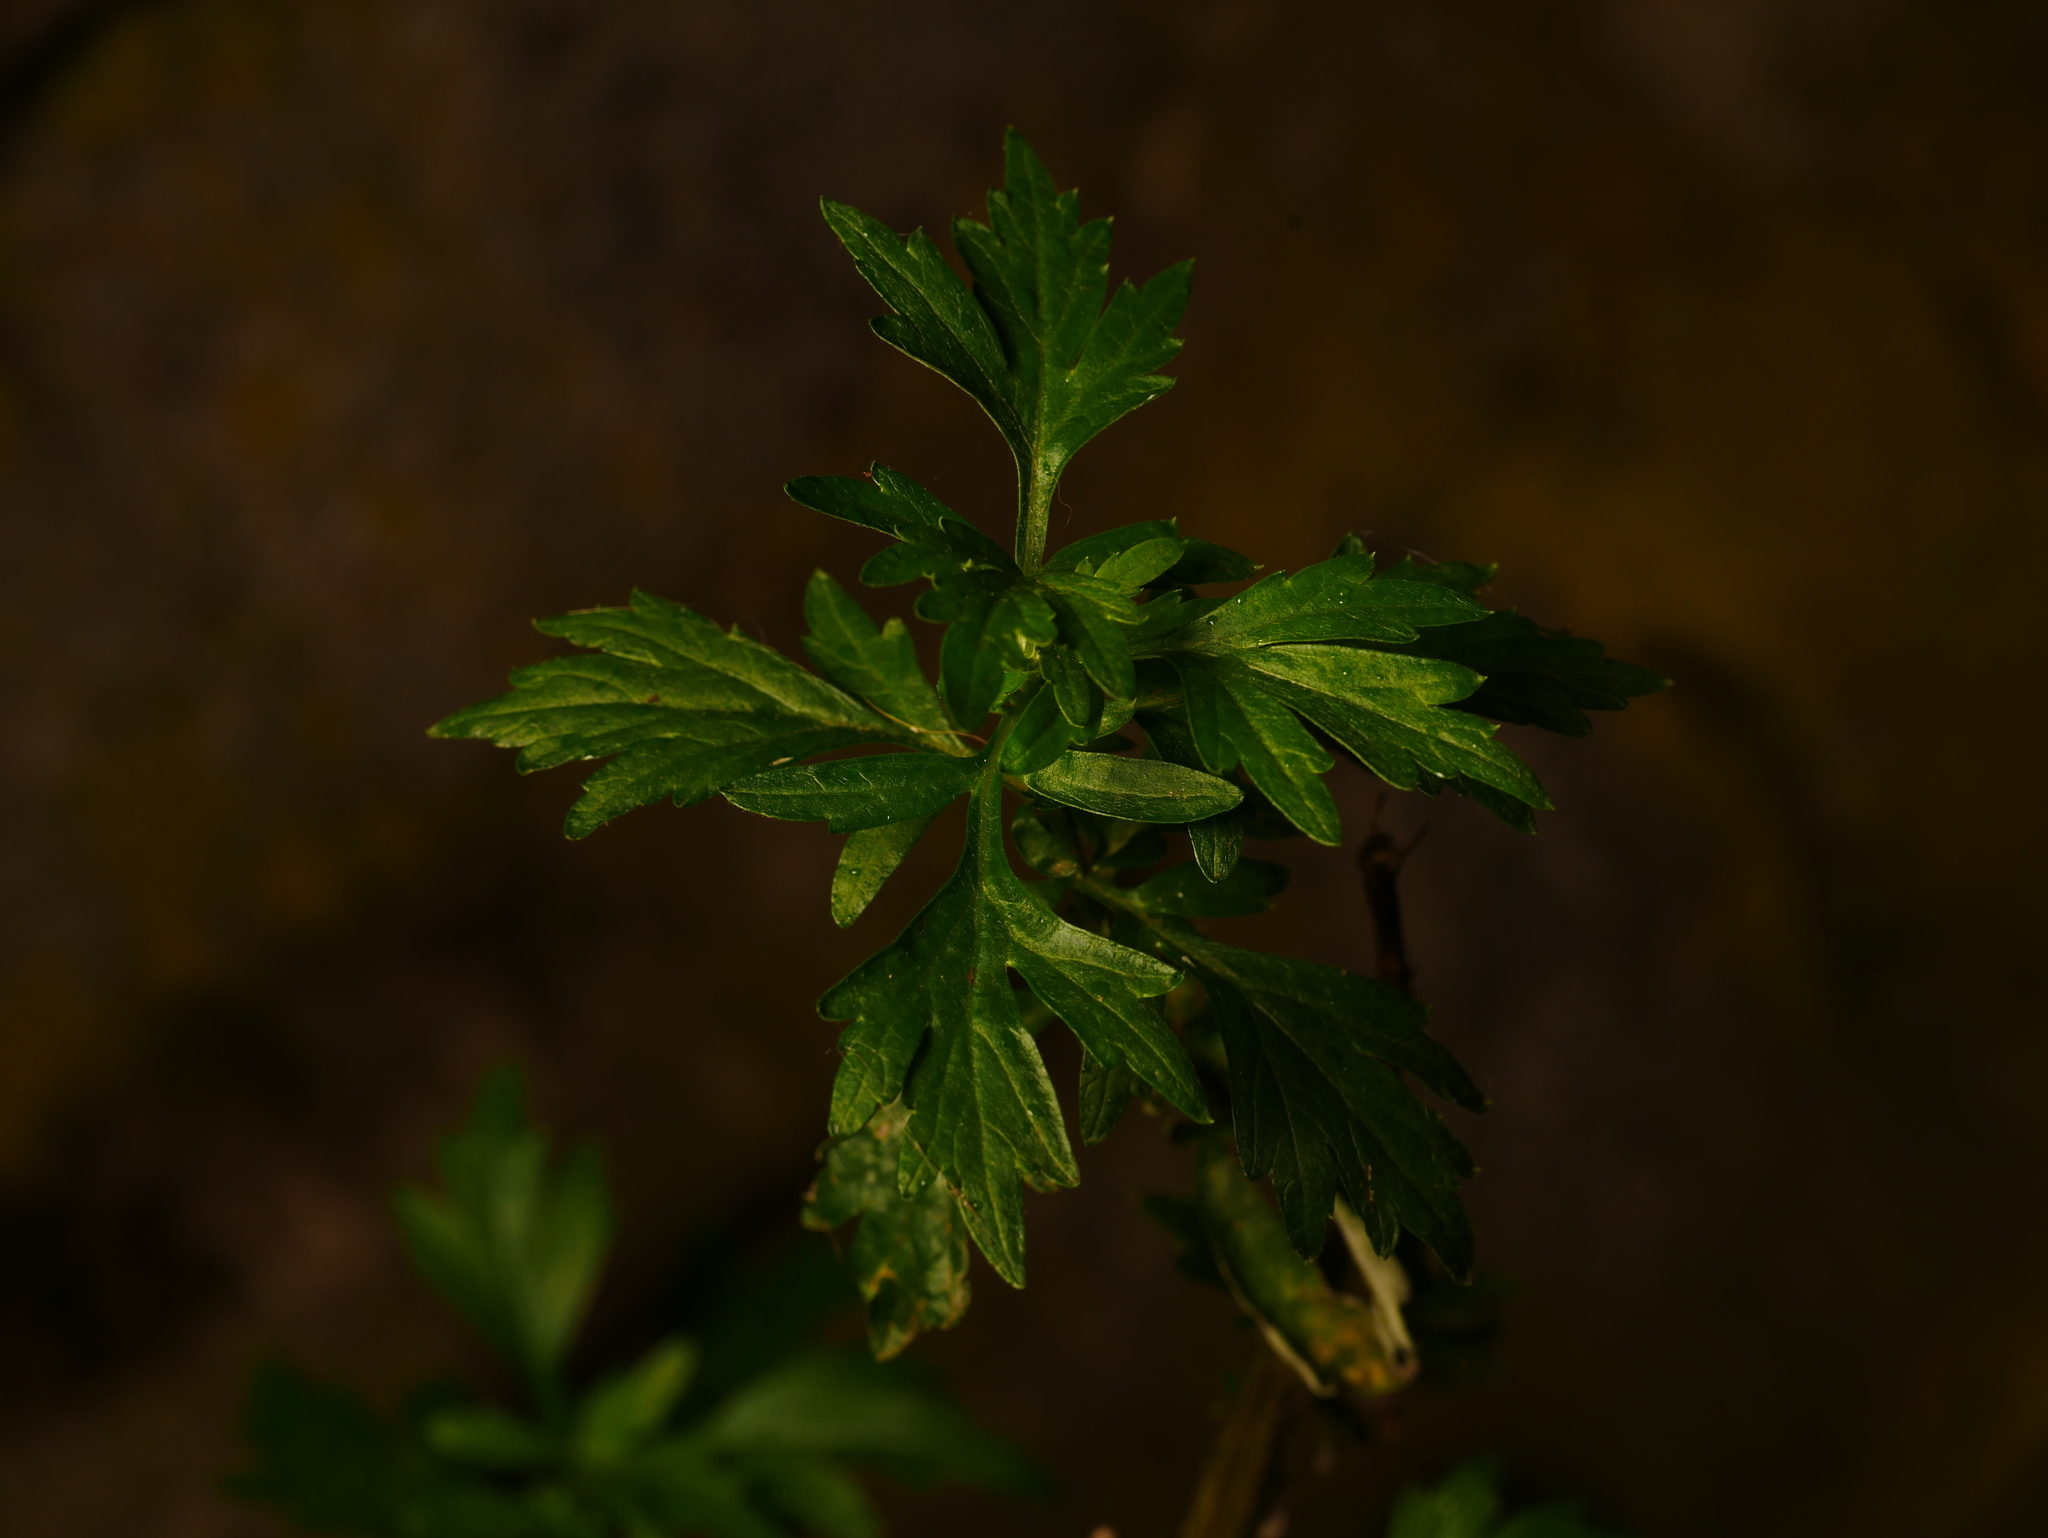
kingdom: Plantae
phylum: Tracheophyta
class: Magnoliopsida
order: Asterales
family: Asteraceae
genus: Artemisia
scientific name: Artemisia vulgaris
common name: Mugwort
